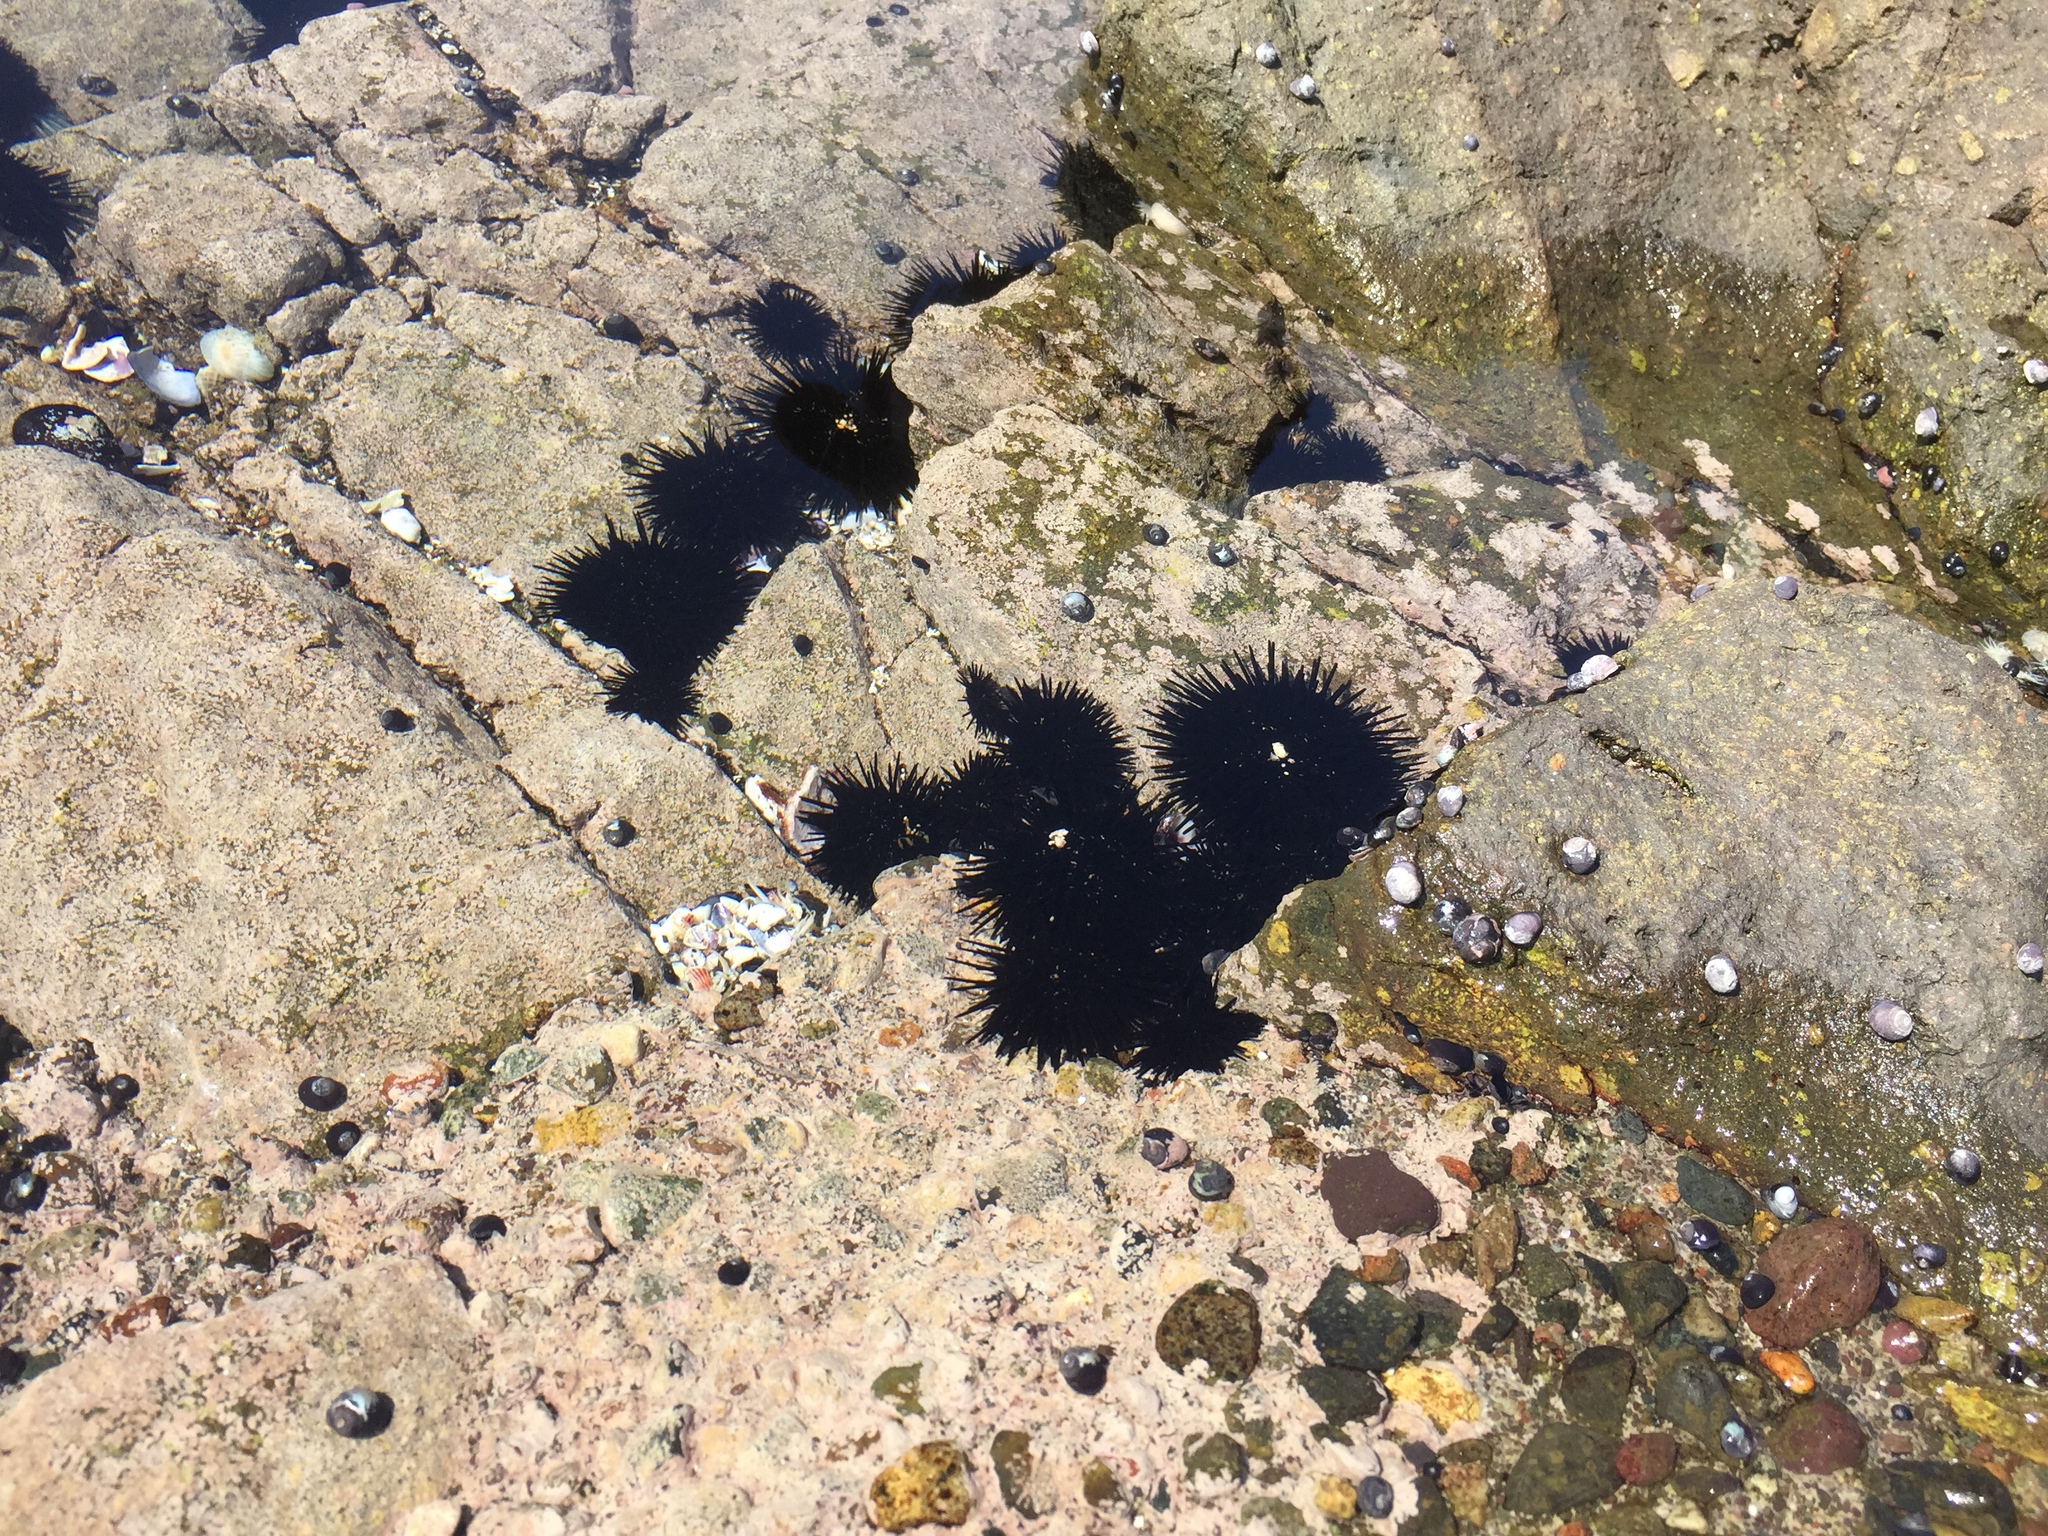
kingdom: Animalia
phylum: Echinodermata
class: Echinoidea
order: Arbacioida
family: Arbaciidae
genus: Tetrapygus
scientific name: Tetrapygus niger
